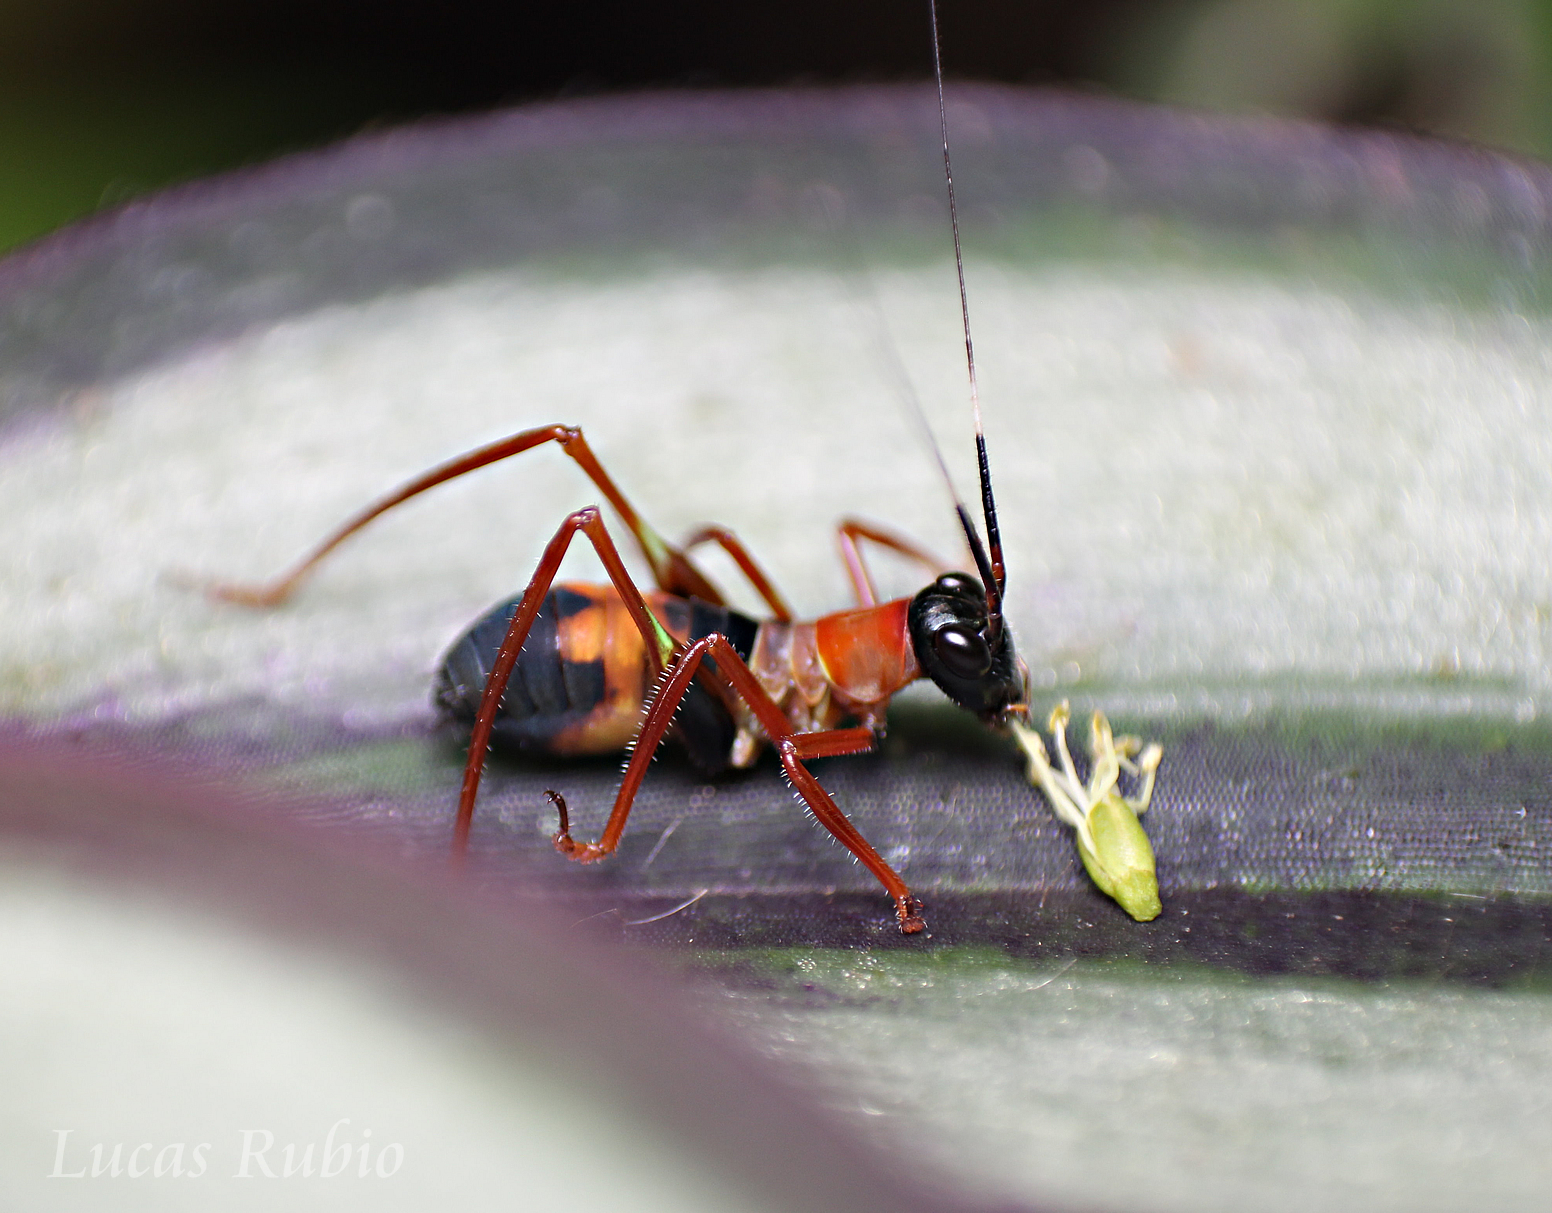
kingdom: Animalia
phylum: Arthropoda
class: Insecta
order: Orthoptera
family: Tettigoniidae
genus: Scaphura
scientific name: Scaphura nigra
